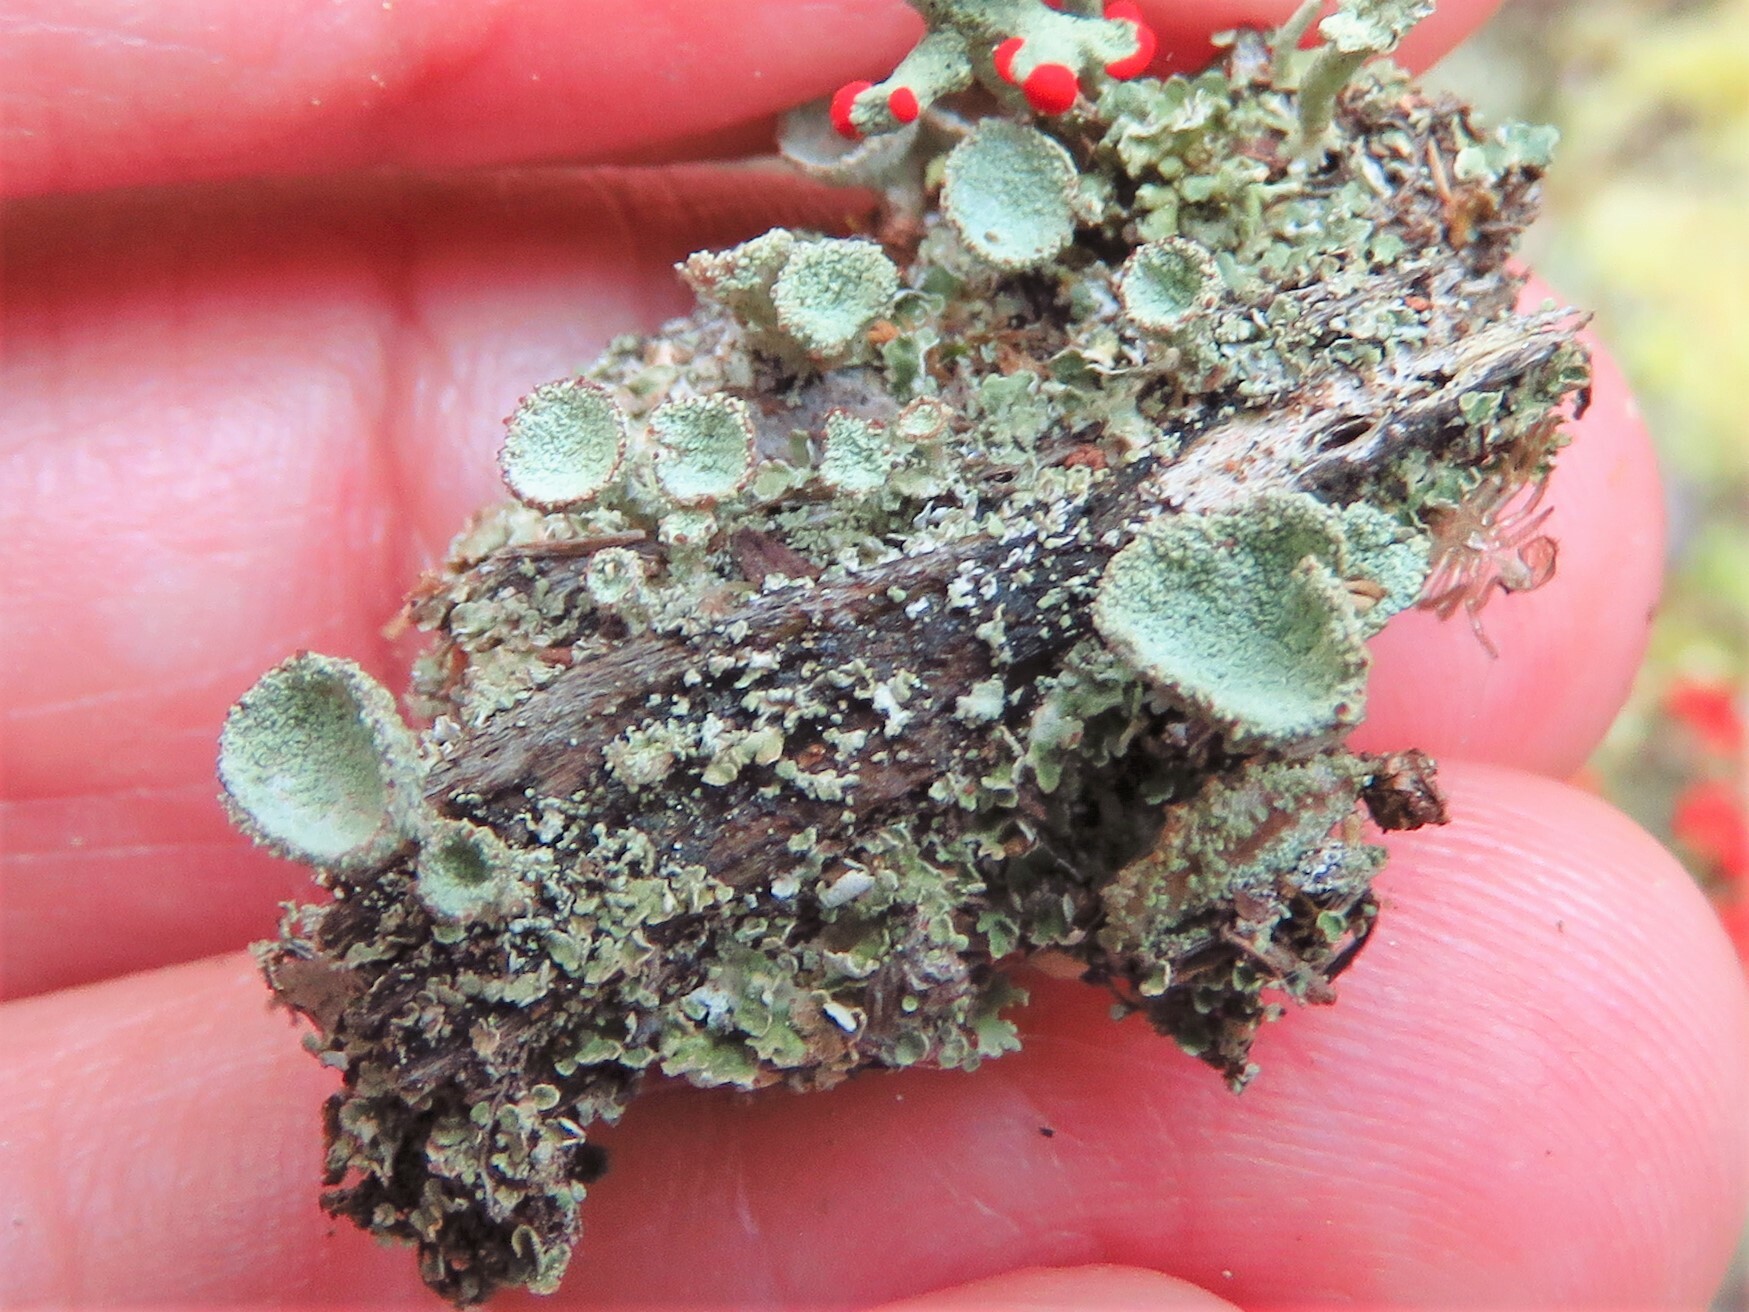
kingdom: Fungi
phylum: Ascomycota
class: Lecanoromycetes
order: Lecanorales
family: Cladoniaceae
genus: Cladonia
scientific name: Cladonia chlorophaea
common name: Mealy pixie cup
